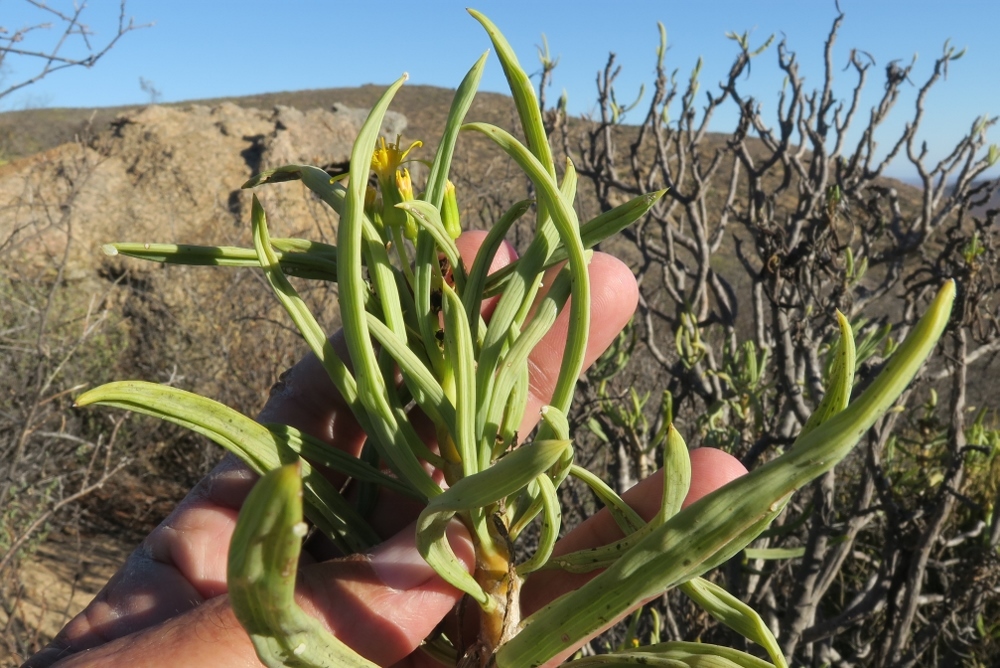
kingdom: Plantae
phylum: Tracheophyta
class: Magnoliopsida
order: Asterales
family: Asteraceae
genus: Curio
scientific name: Curio corymbifer
